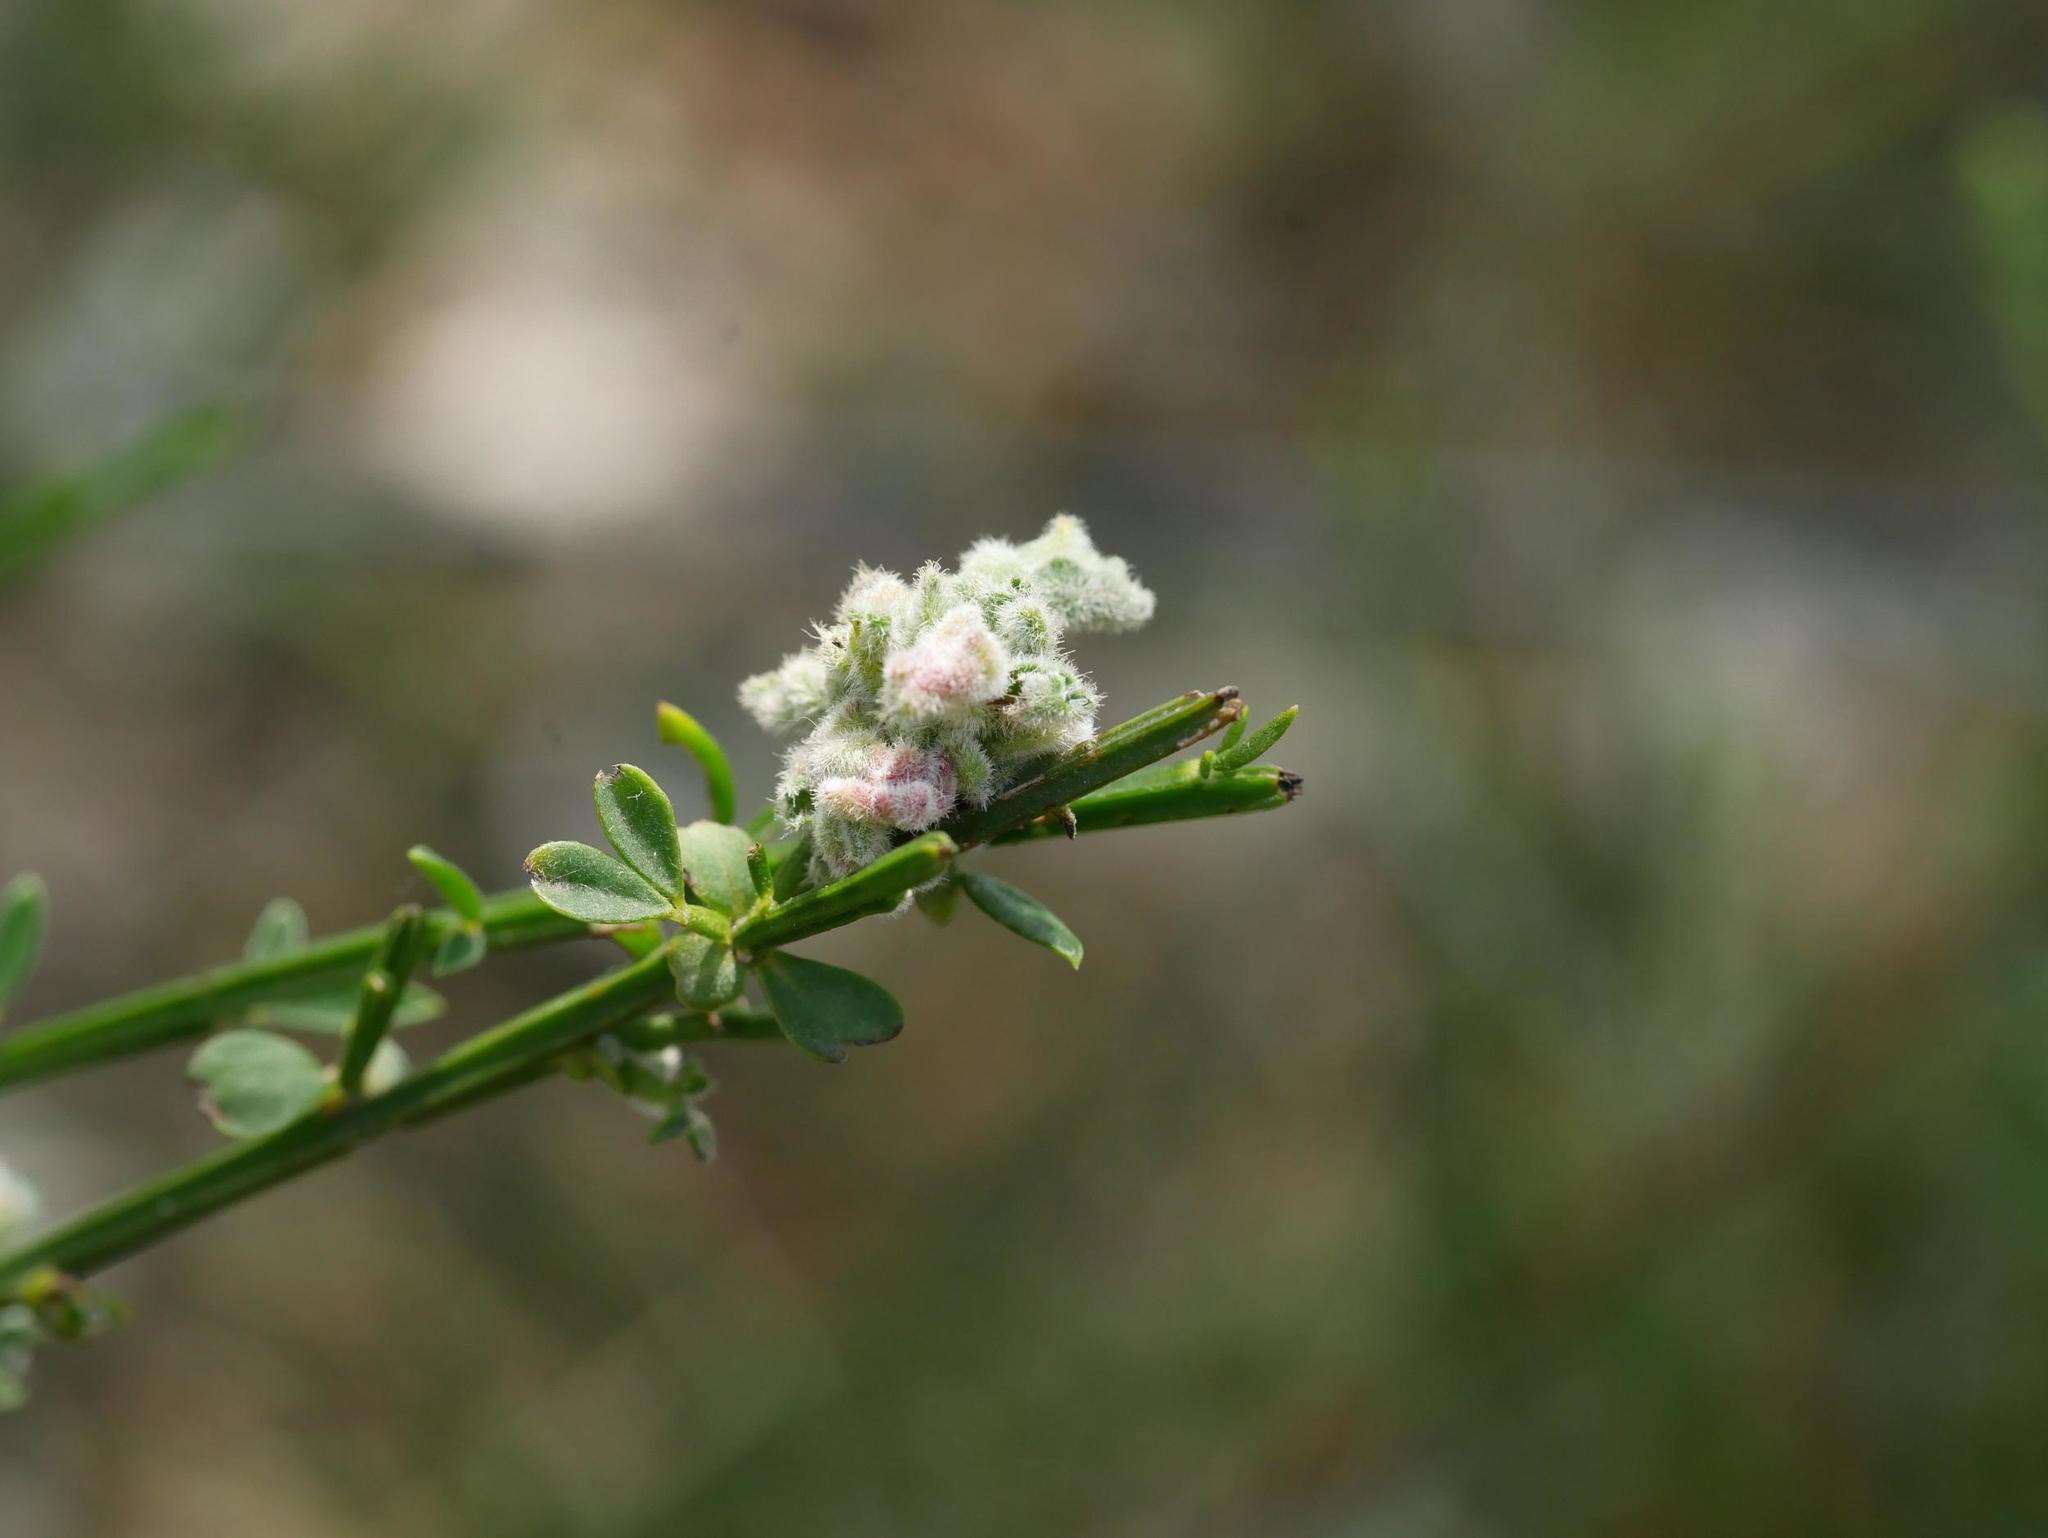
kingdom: Animalia
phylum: Arthropoda
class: Arachnida
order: Trombidiformes
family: Eriophyidae
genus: Aceria
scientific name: Aceria genistae
